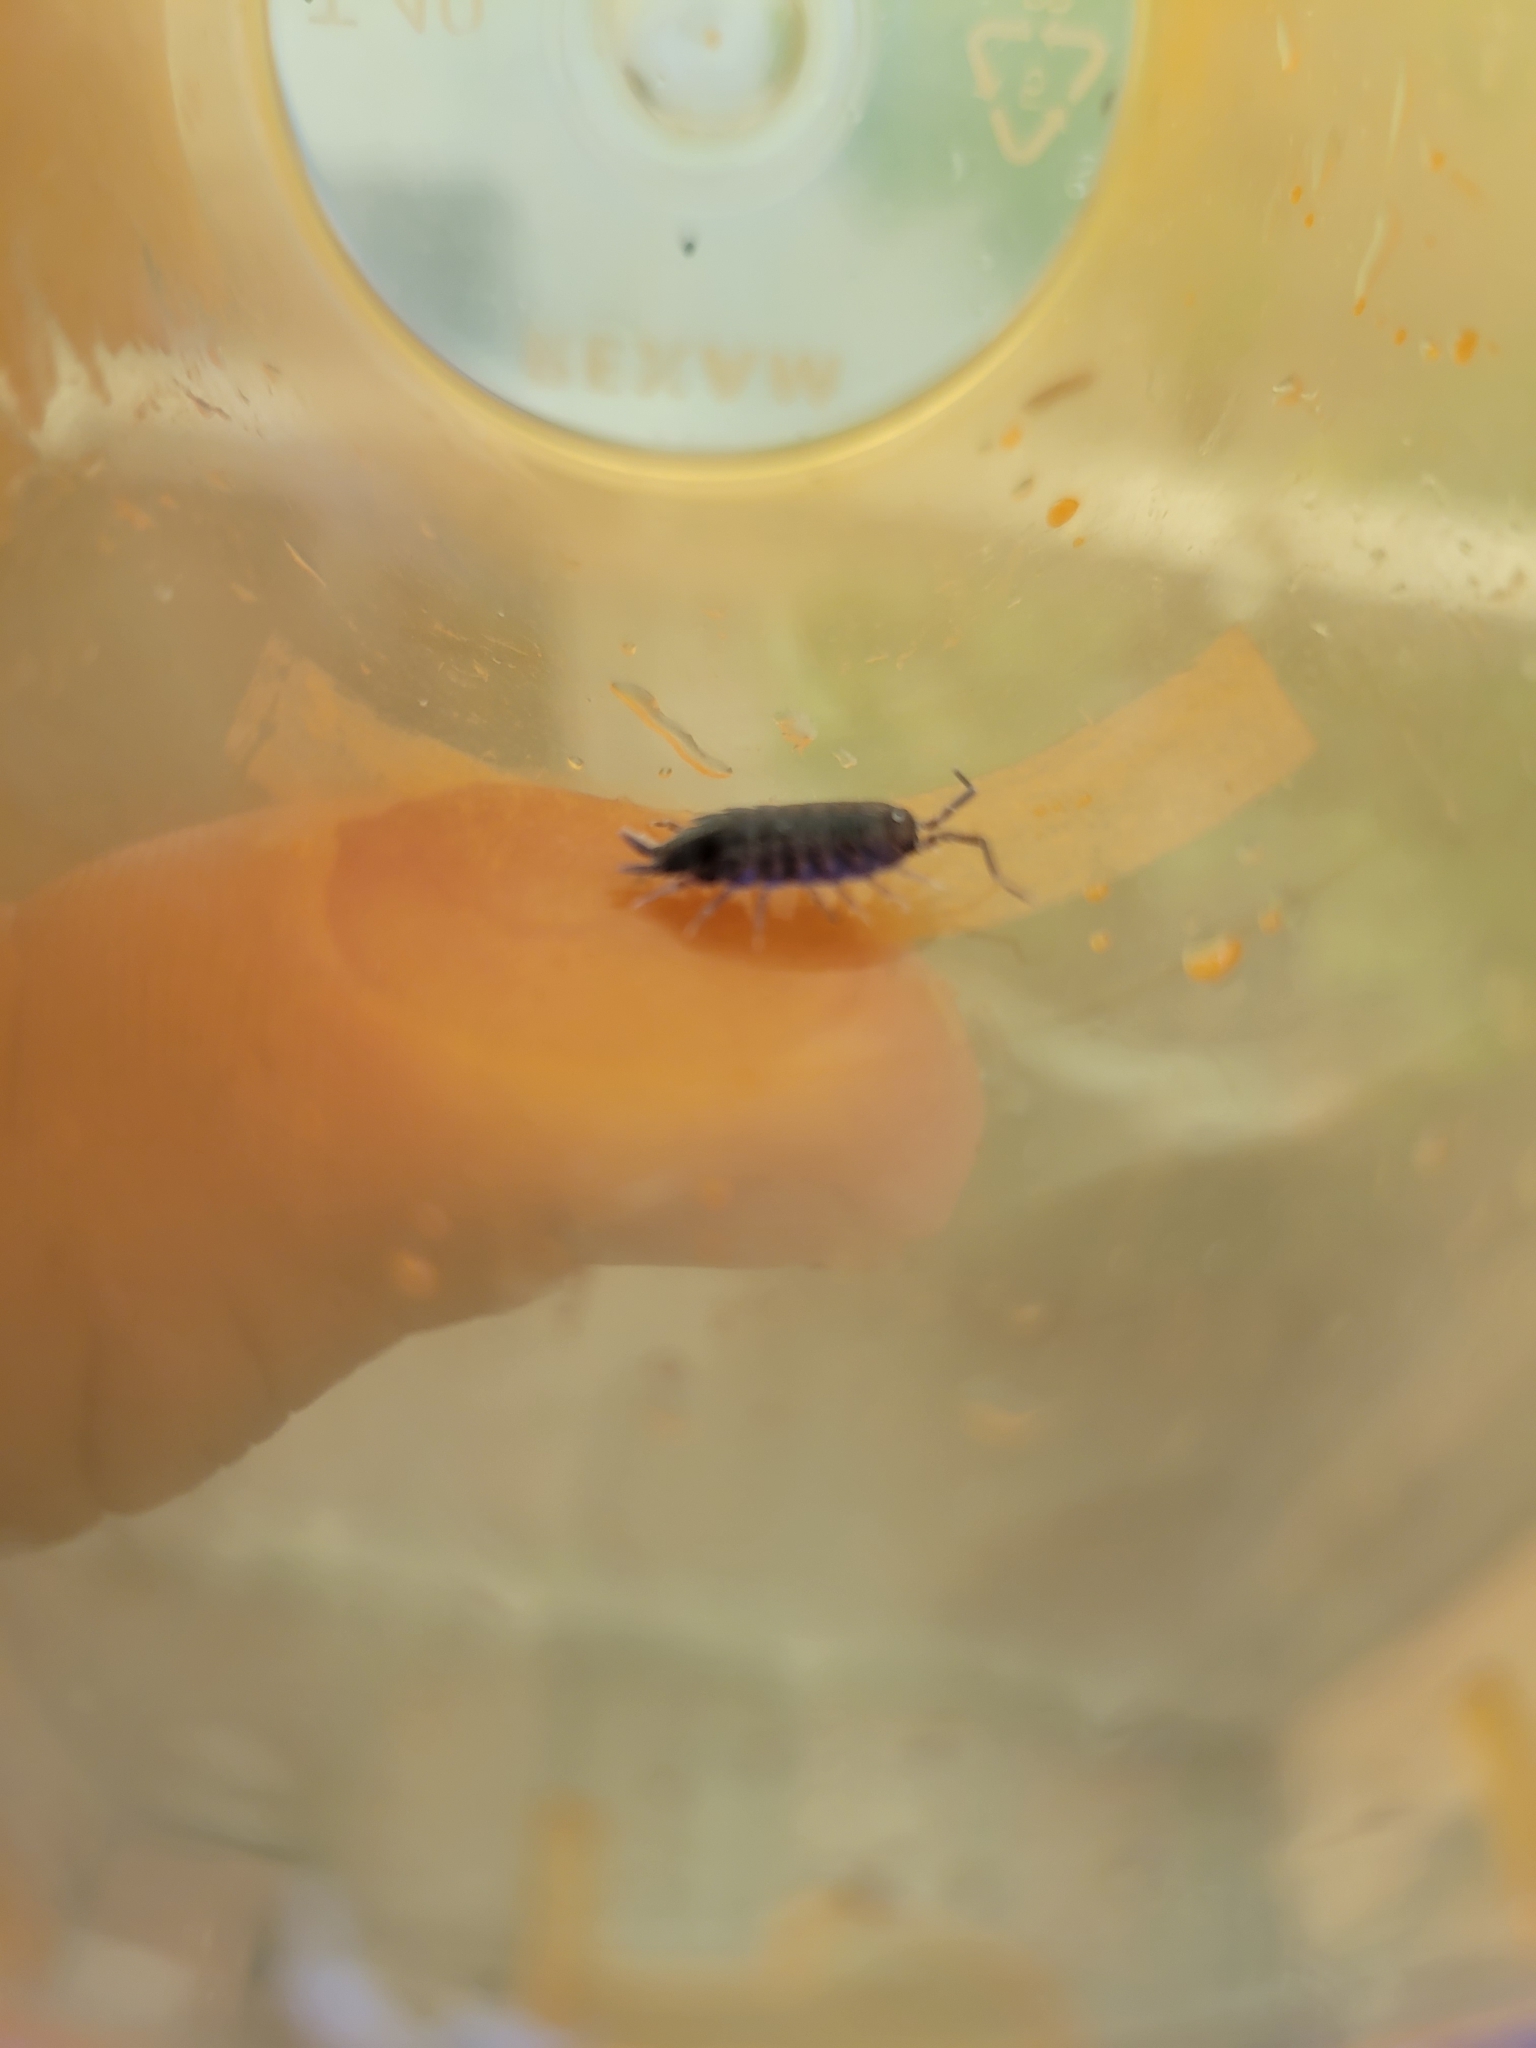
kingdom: Animalia
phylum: Arthropoda
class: Malacostraca
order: Isopoda
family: Porcellionidae
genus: Porcellionides
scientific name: Porcellionides
